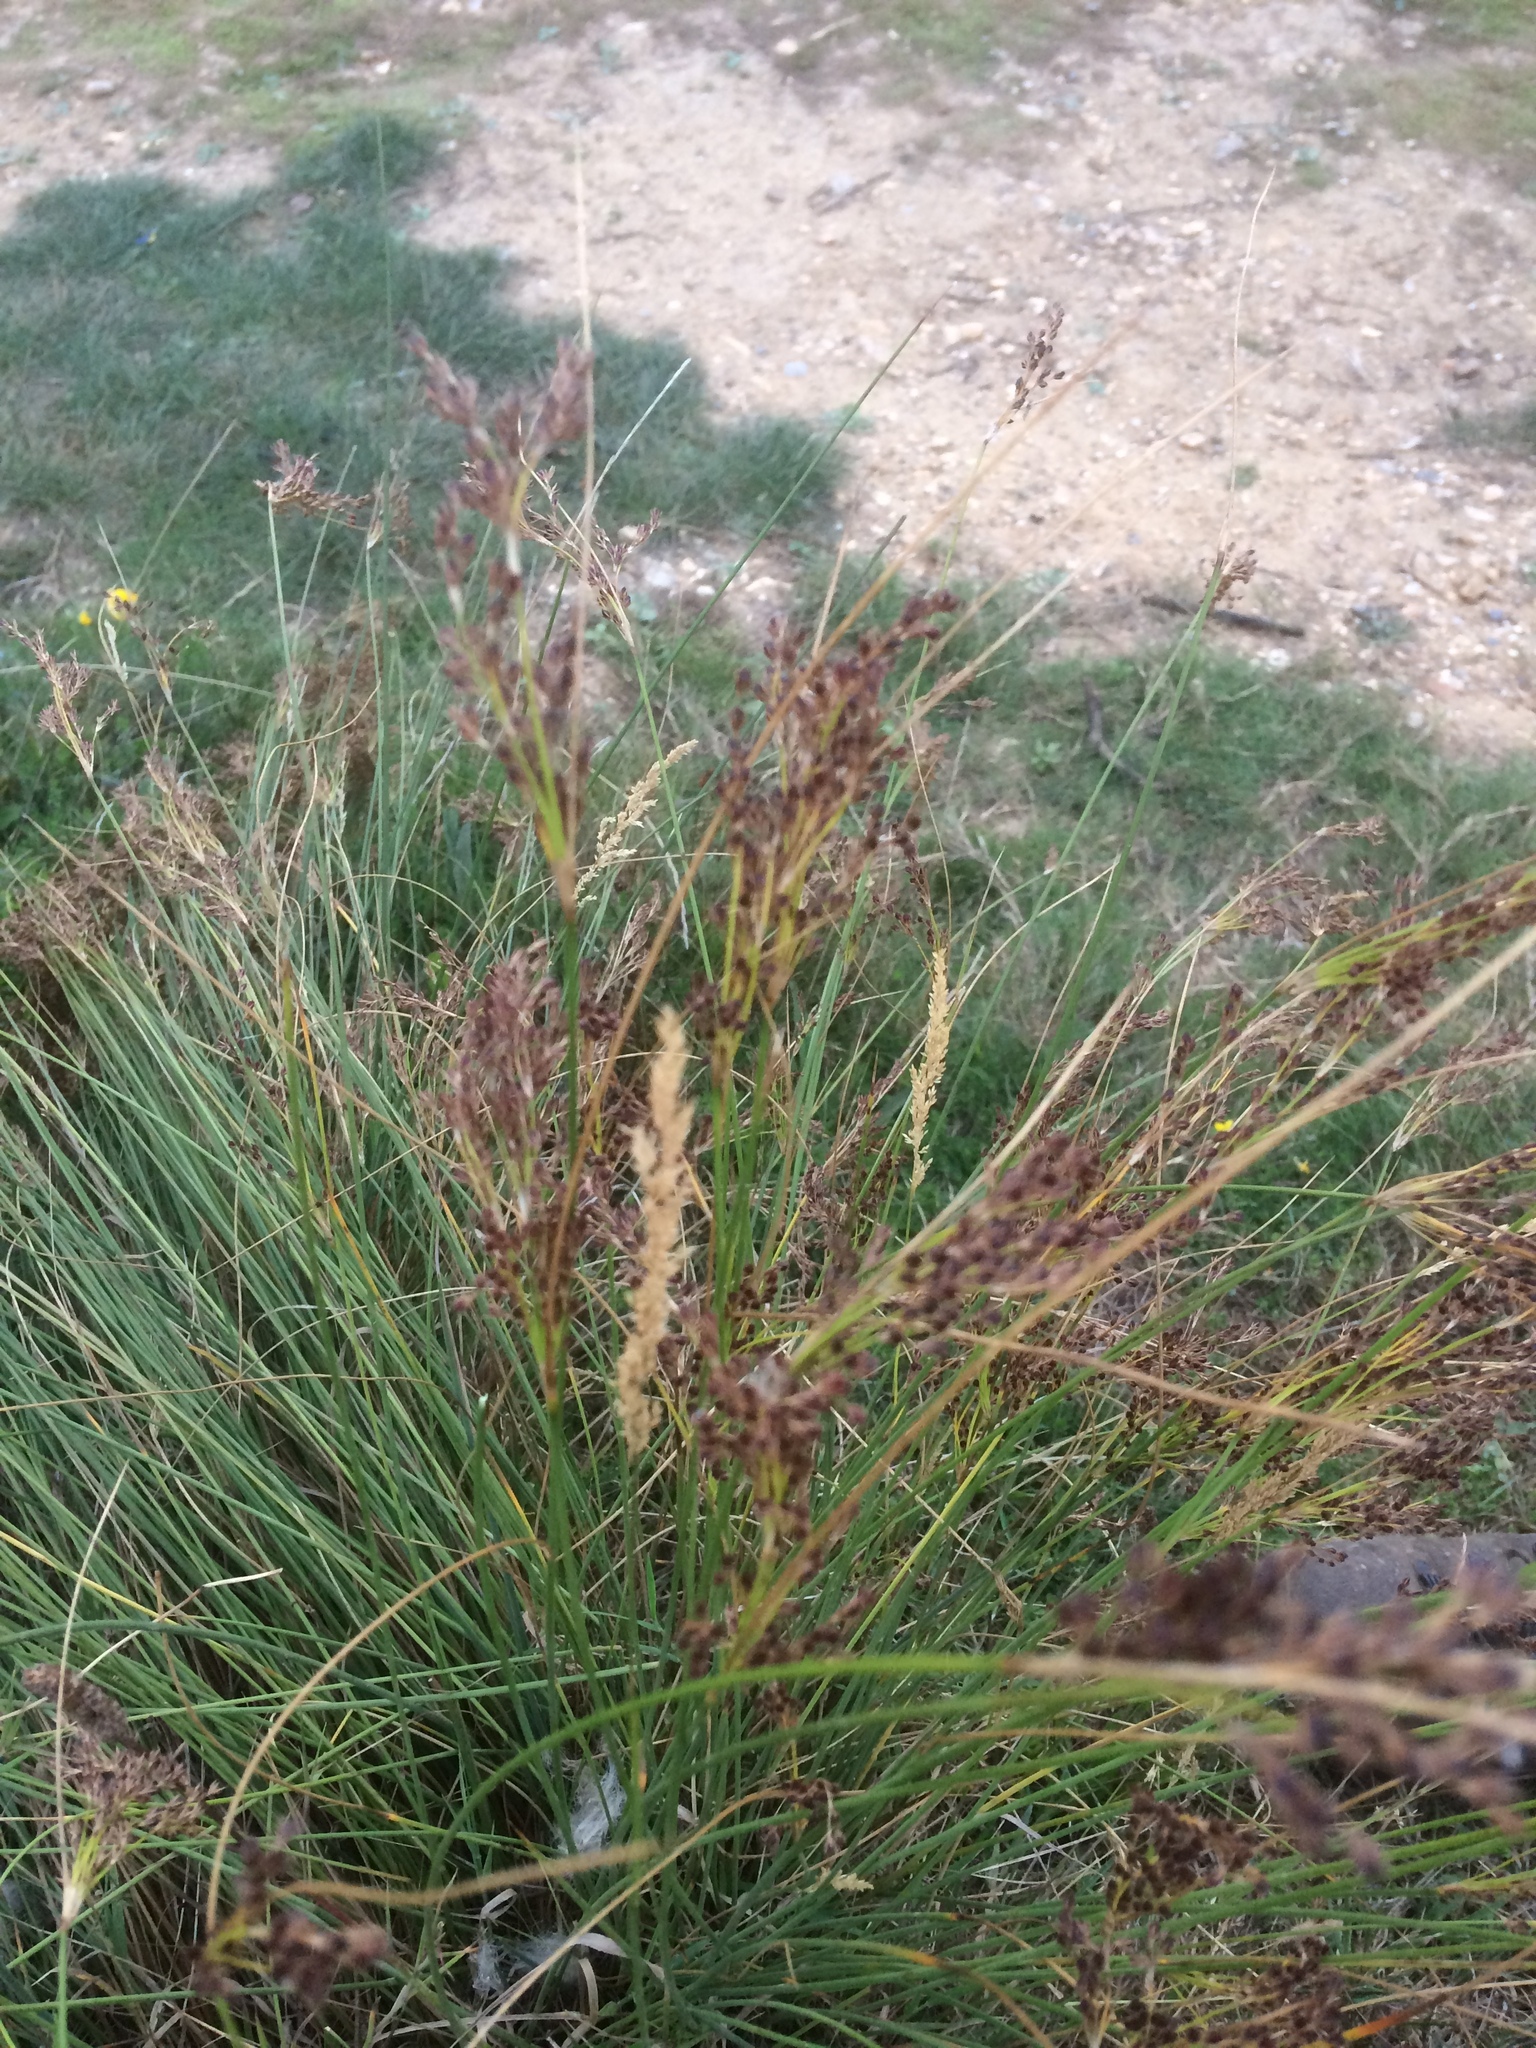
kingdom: Plantae
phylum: Tracheophyta
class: Liliopsida
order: Poales
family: Juncaceae
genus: Juncus
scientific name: Juncus inflexus
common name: Hard rush
